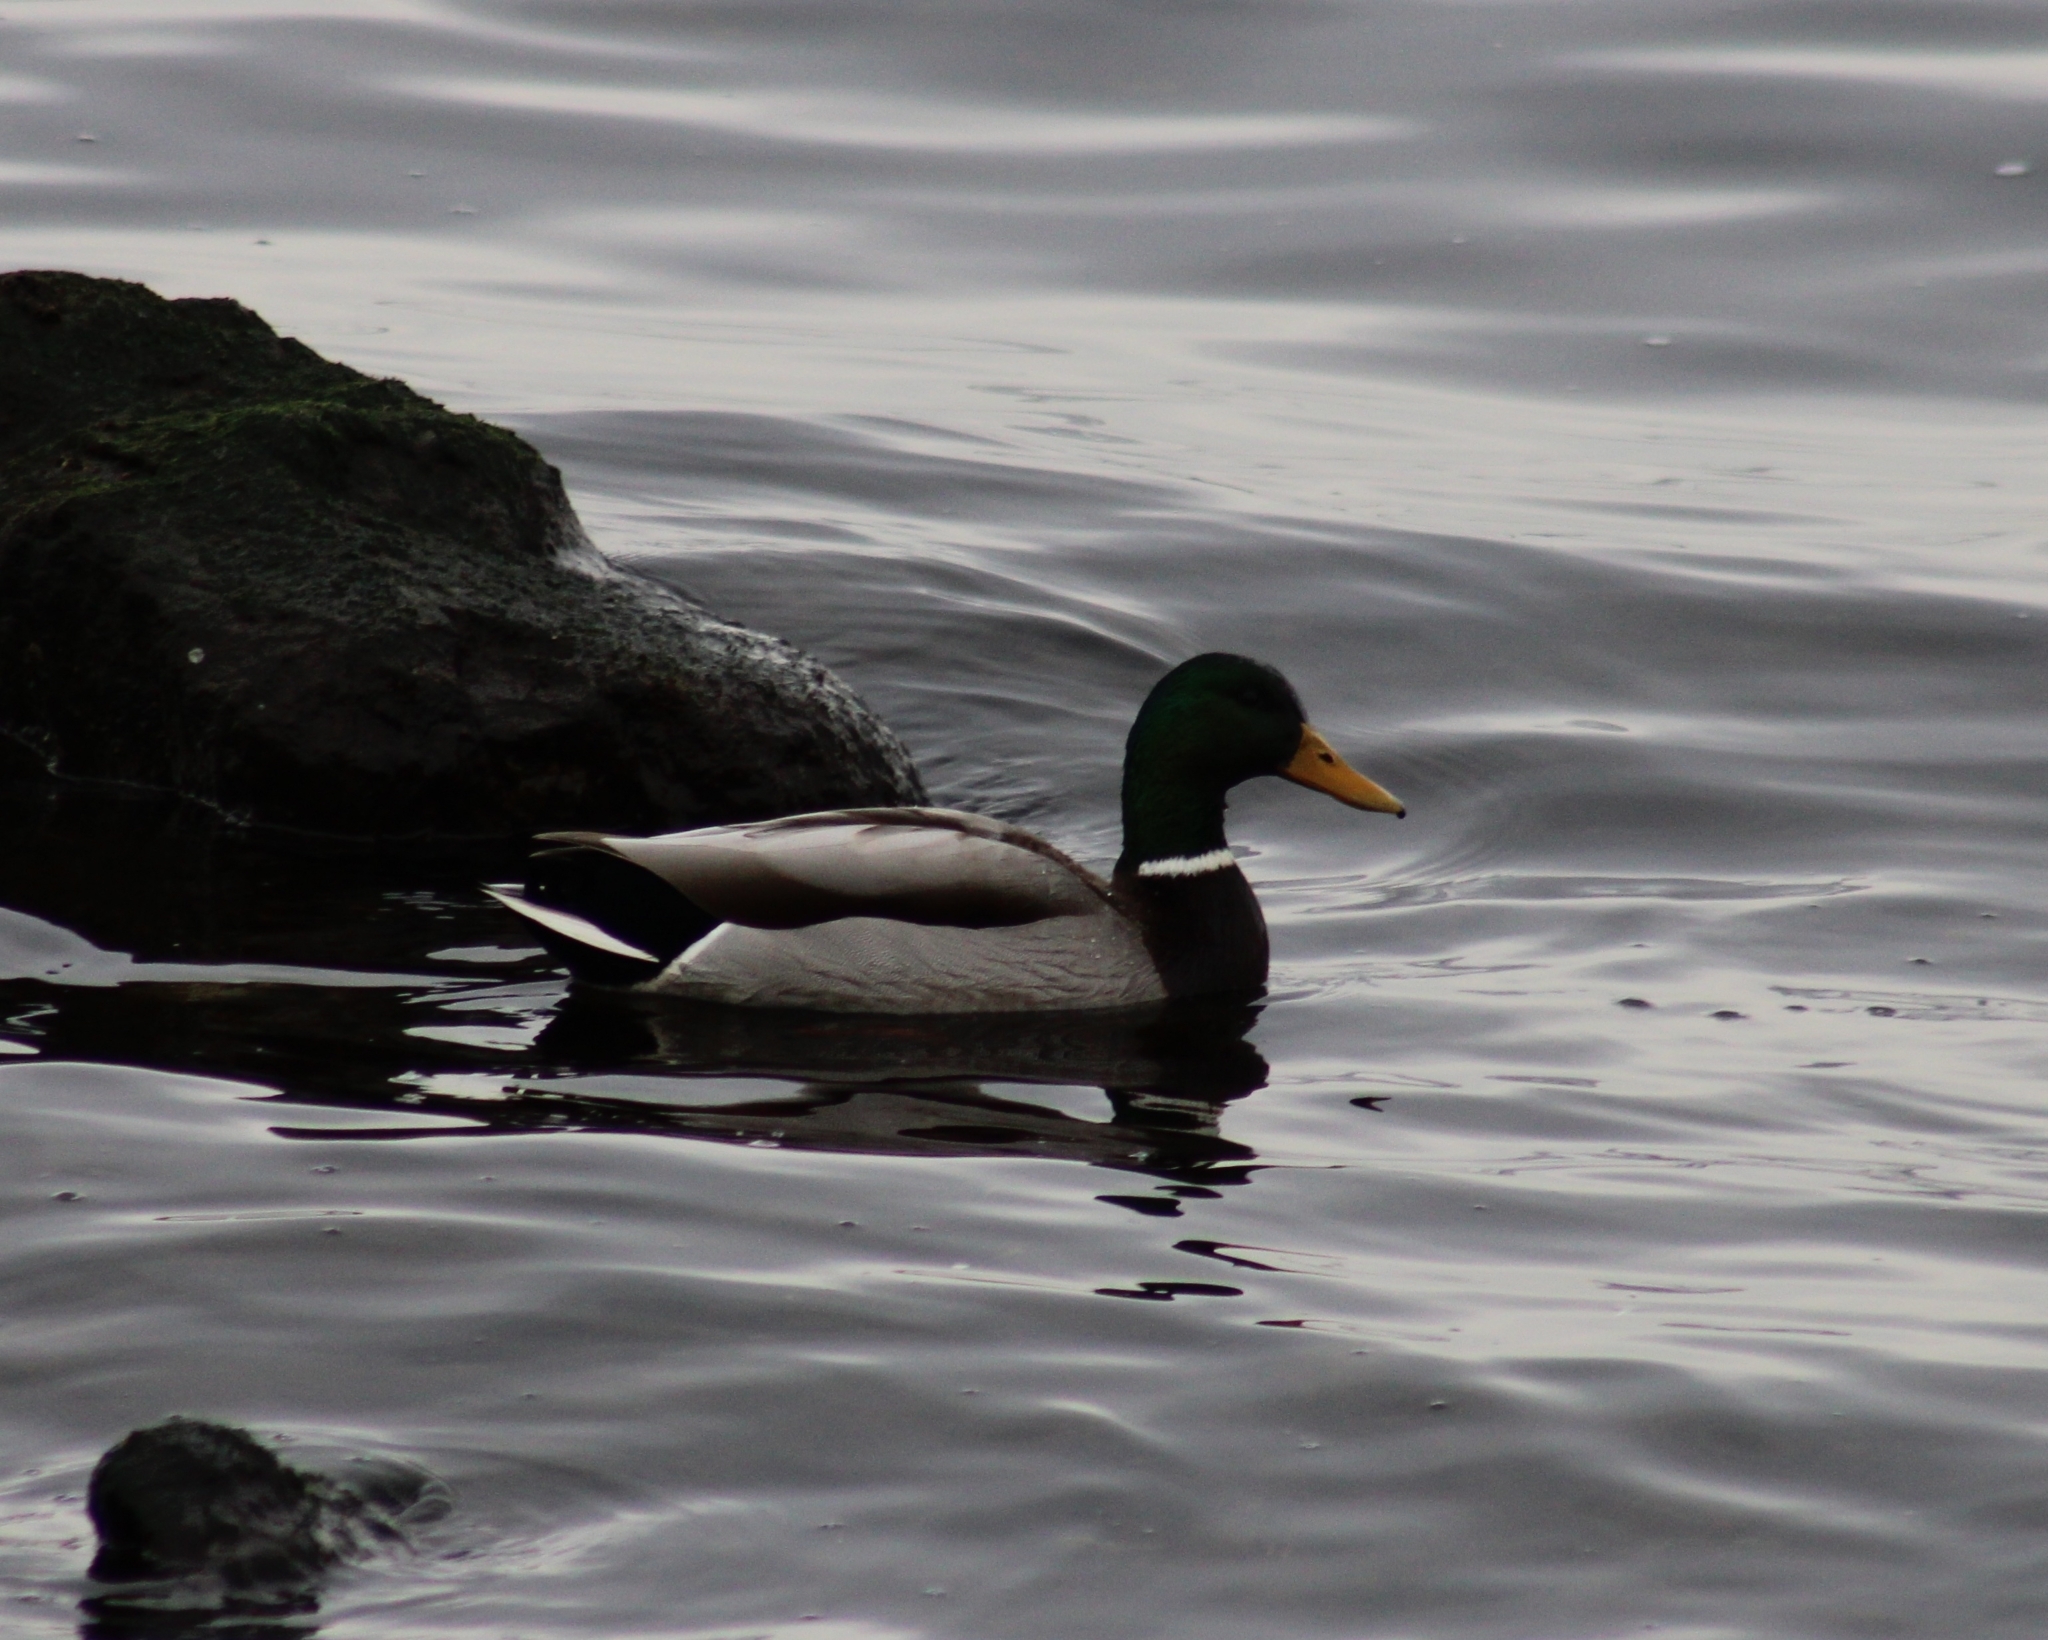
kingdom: Animalia
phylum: Chordata
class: Aves
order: Anseriformes
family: Anatidae
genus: Anas
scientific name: Anas platyrhynchos
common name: Mallard
